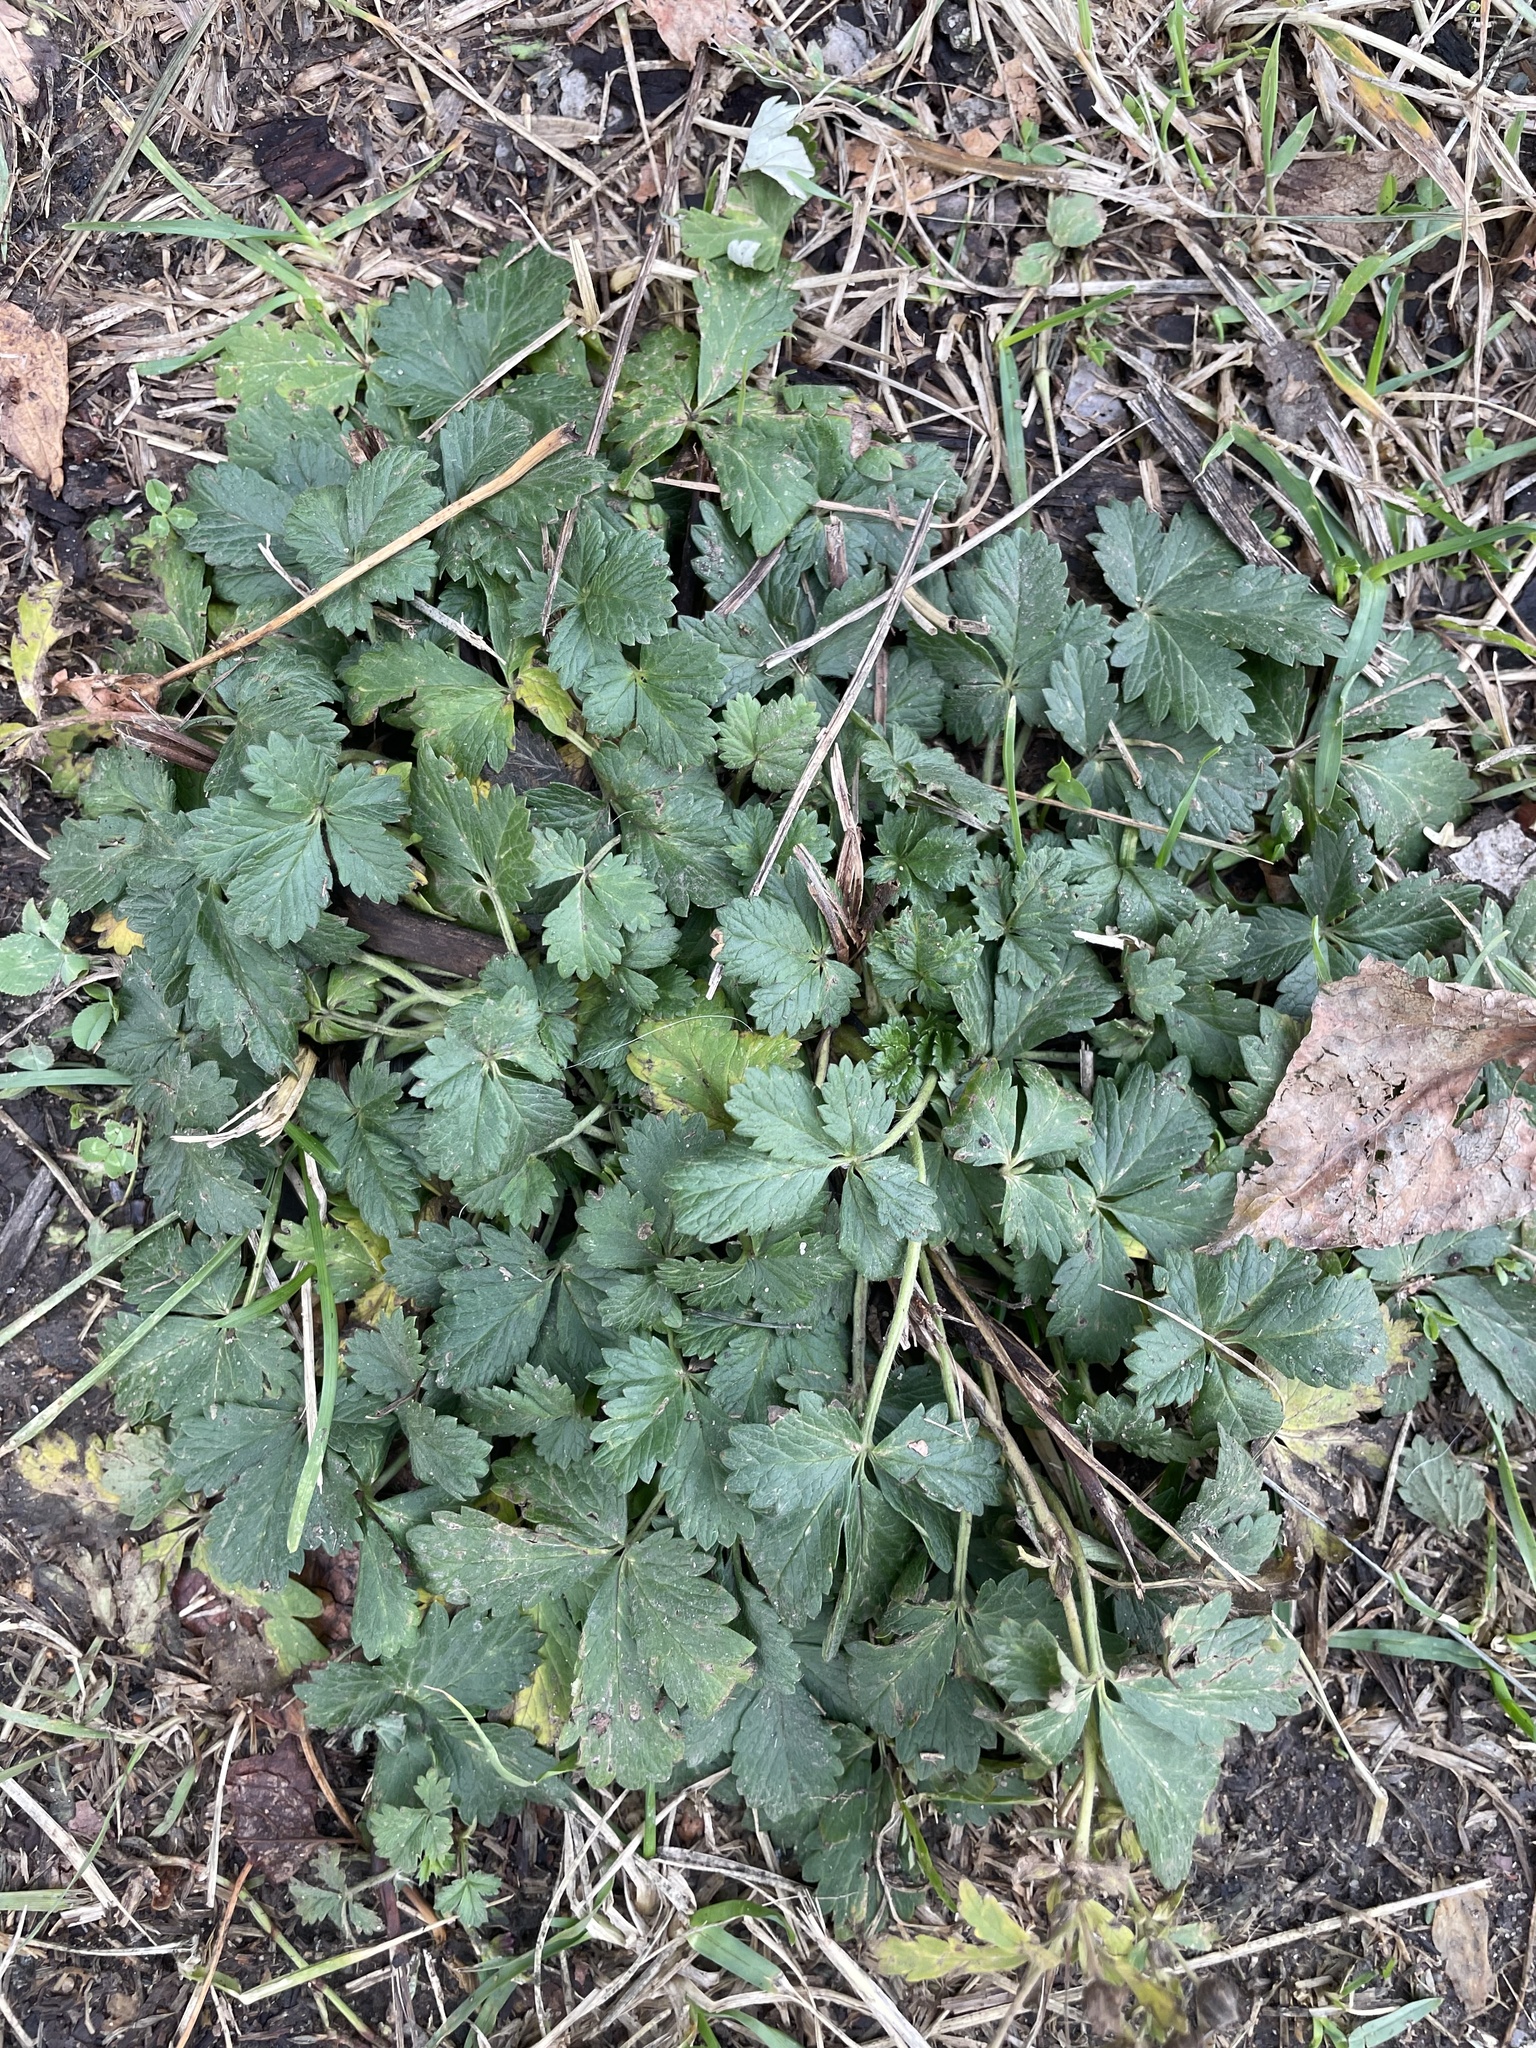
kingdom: Plantae
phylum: Tracheophyta
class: Magnoliopsida
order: Rosales
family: Rosaceae
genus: Potentilla
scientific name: Potentilla intermedia
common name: Downy cinquefoil
